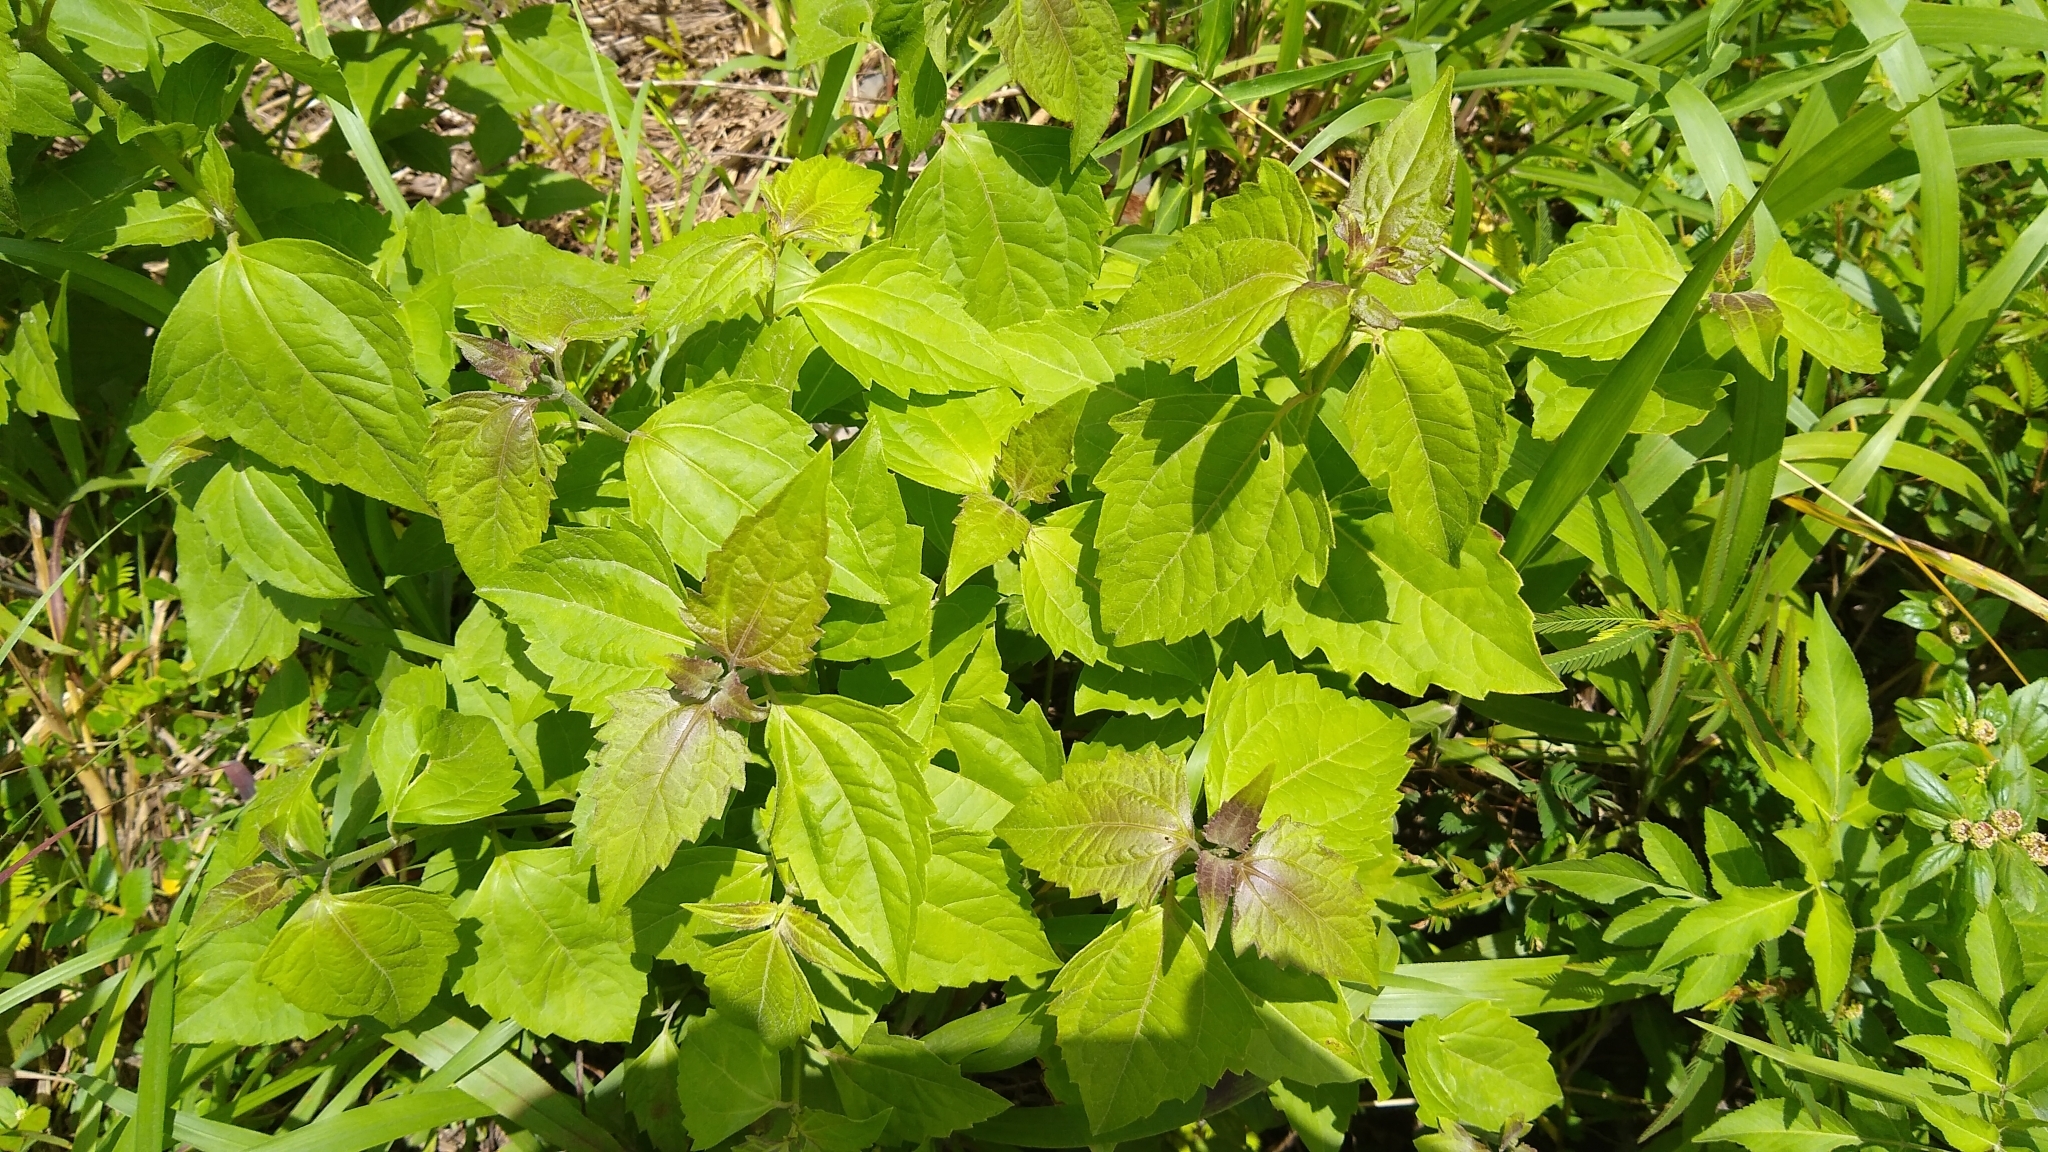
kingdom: Plantae
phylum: Tracheophyta
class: Magnoliopsida
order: Asterales
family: Asteraceae
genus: Chromolaena
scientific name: Chromolaena odorata
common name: Siamweed
